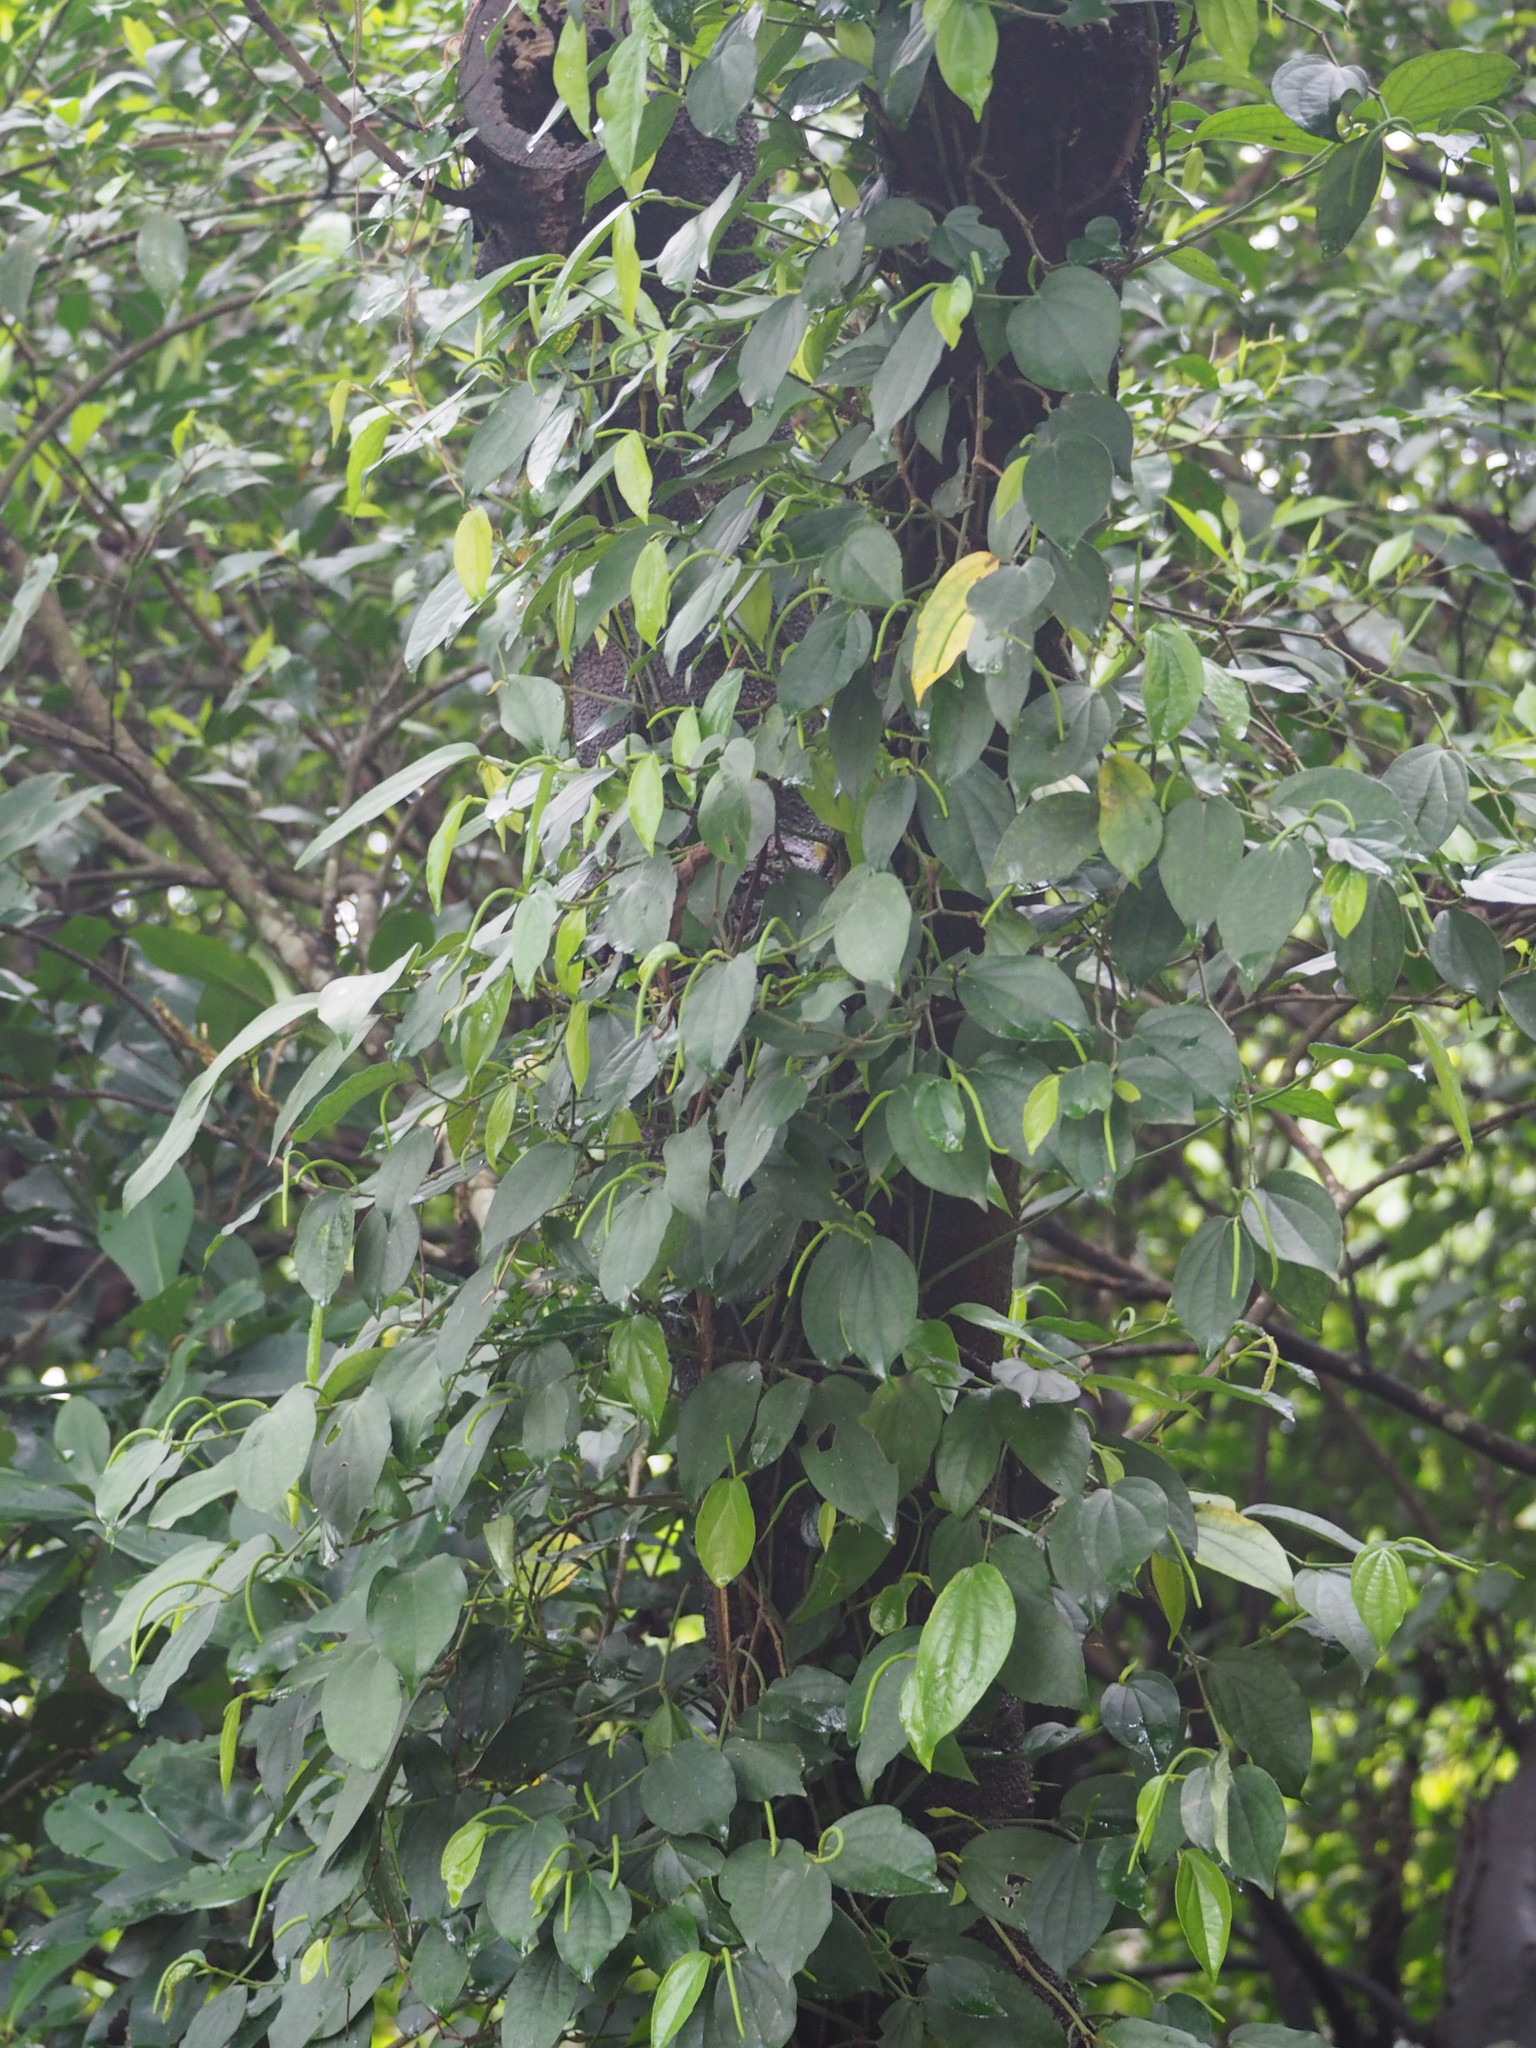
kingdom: Plantae
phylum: Tracheophyta
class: Magnoliopsida
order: Piperales
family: Piperaceae
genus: Piper
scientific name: Piper taiwanense
